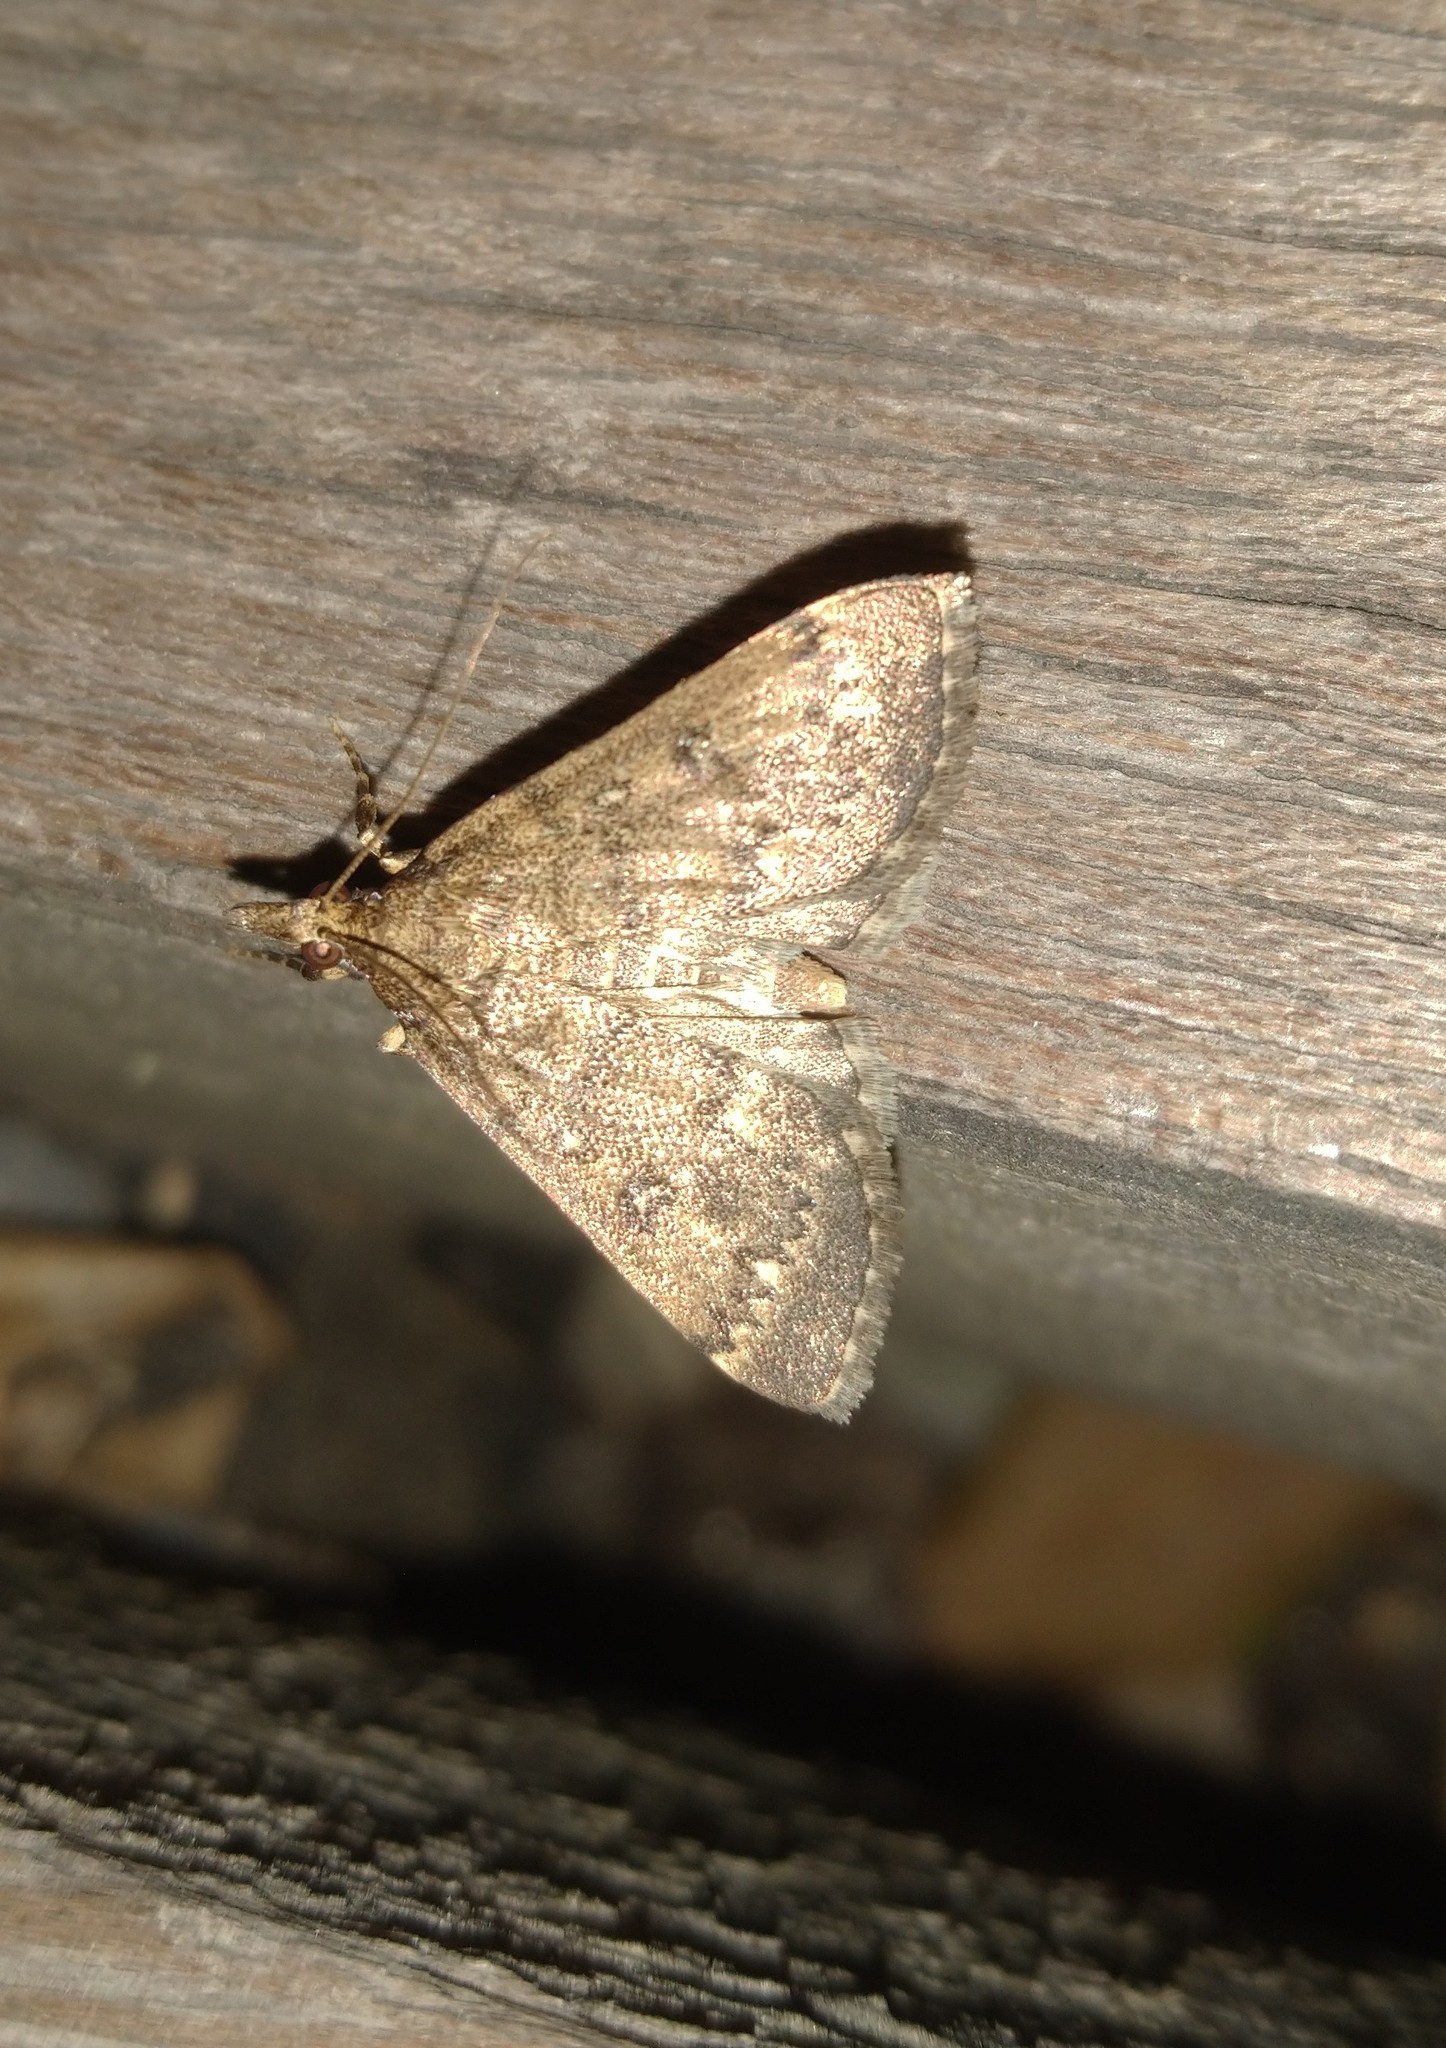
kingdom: Animalia
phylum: Arthropoda
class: Insecta
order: Lepidoptera
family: Crambidae
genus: Loxostege
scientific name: Loxostege Proternia philocapna
